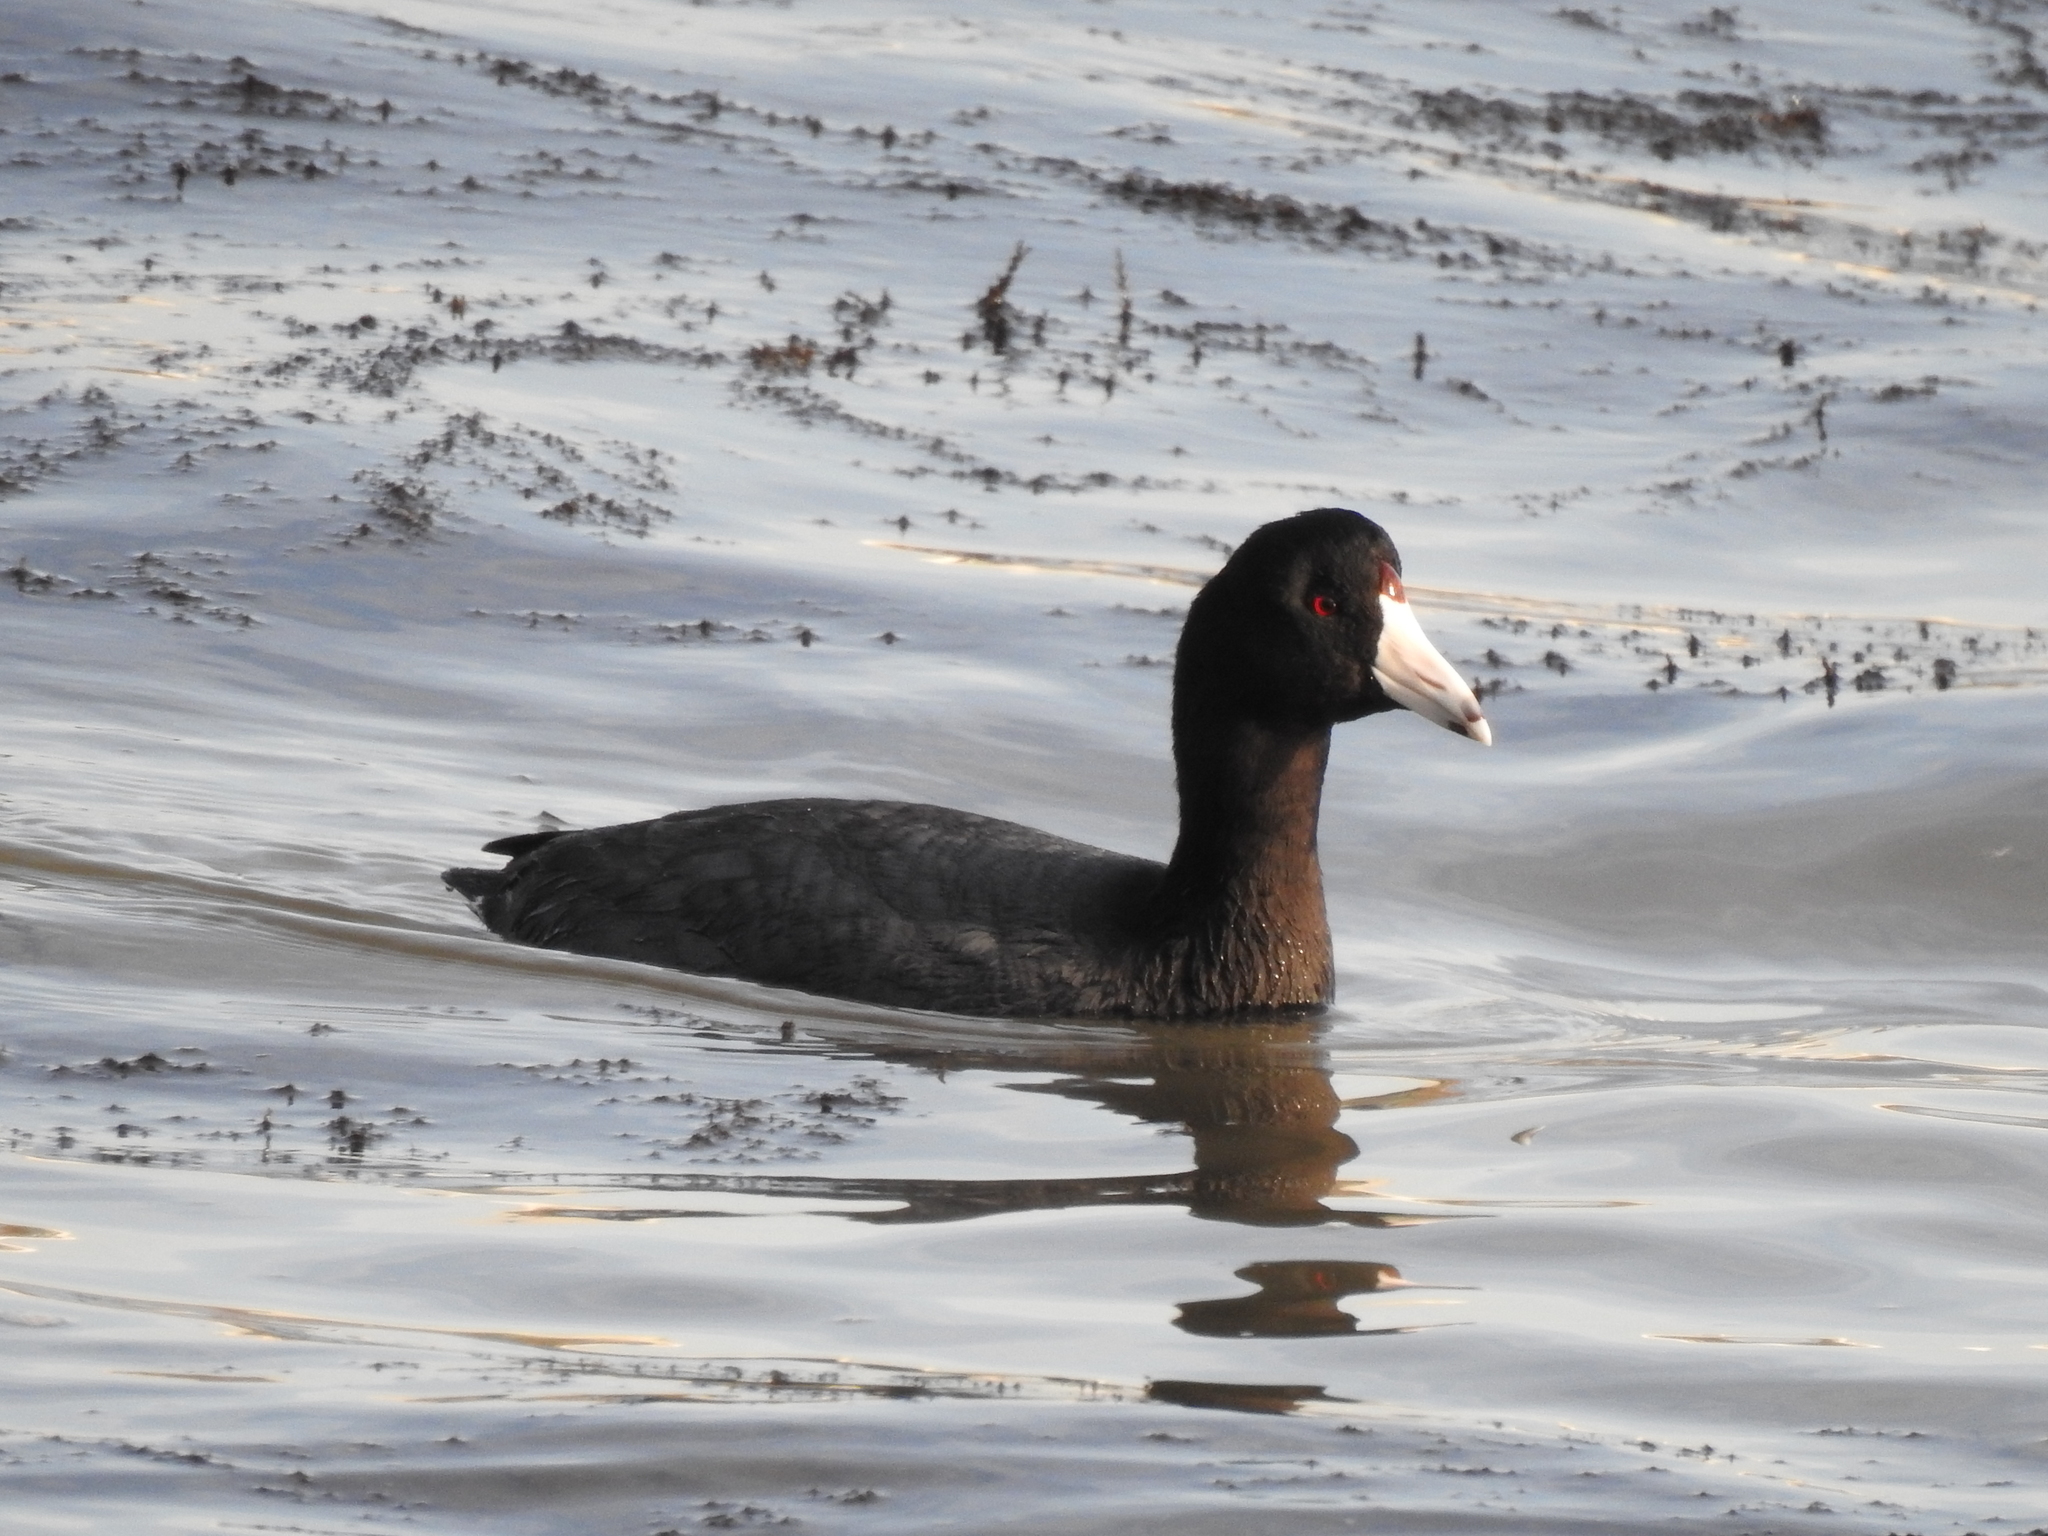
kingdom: Animalia
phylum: Chordata
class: Aves
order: Gruiformes
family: Rallidae
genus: Fulica
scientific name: Fulica americana
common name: American coot
